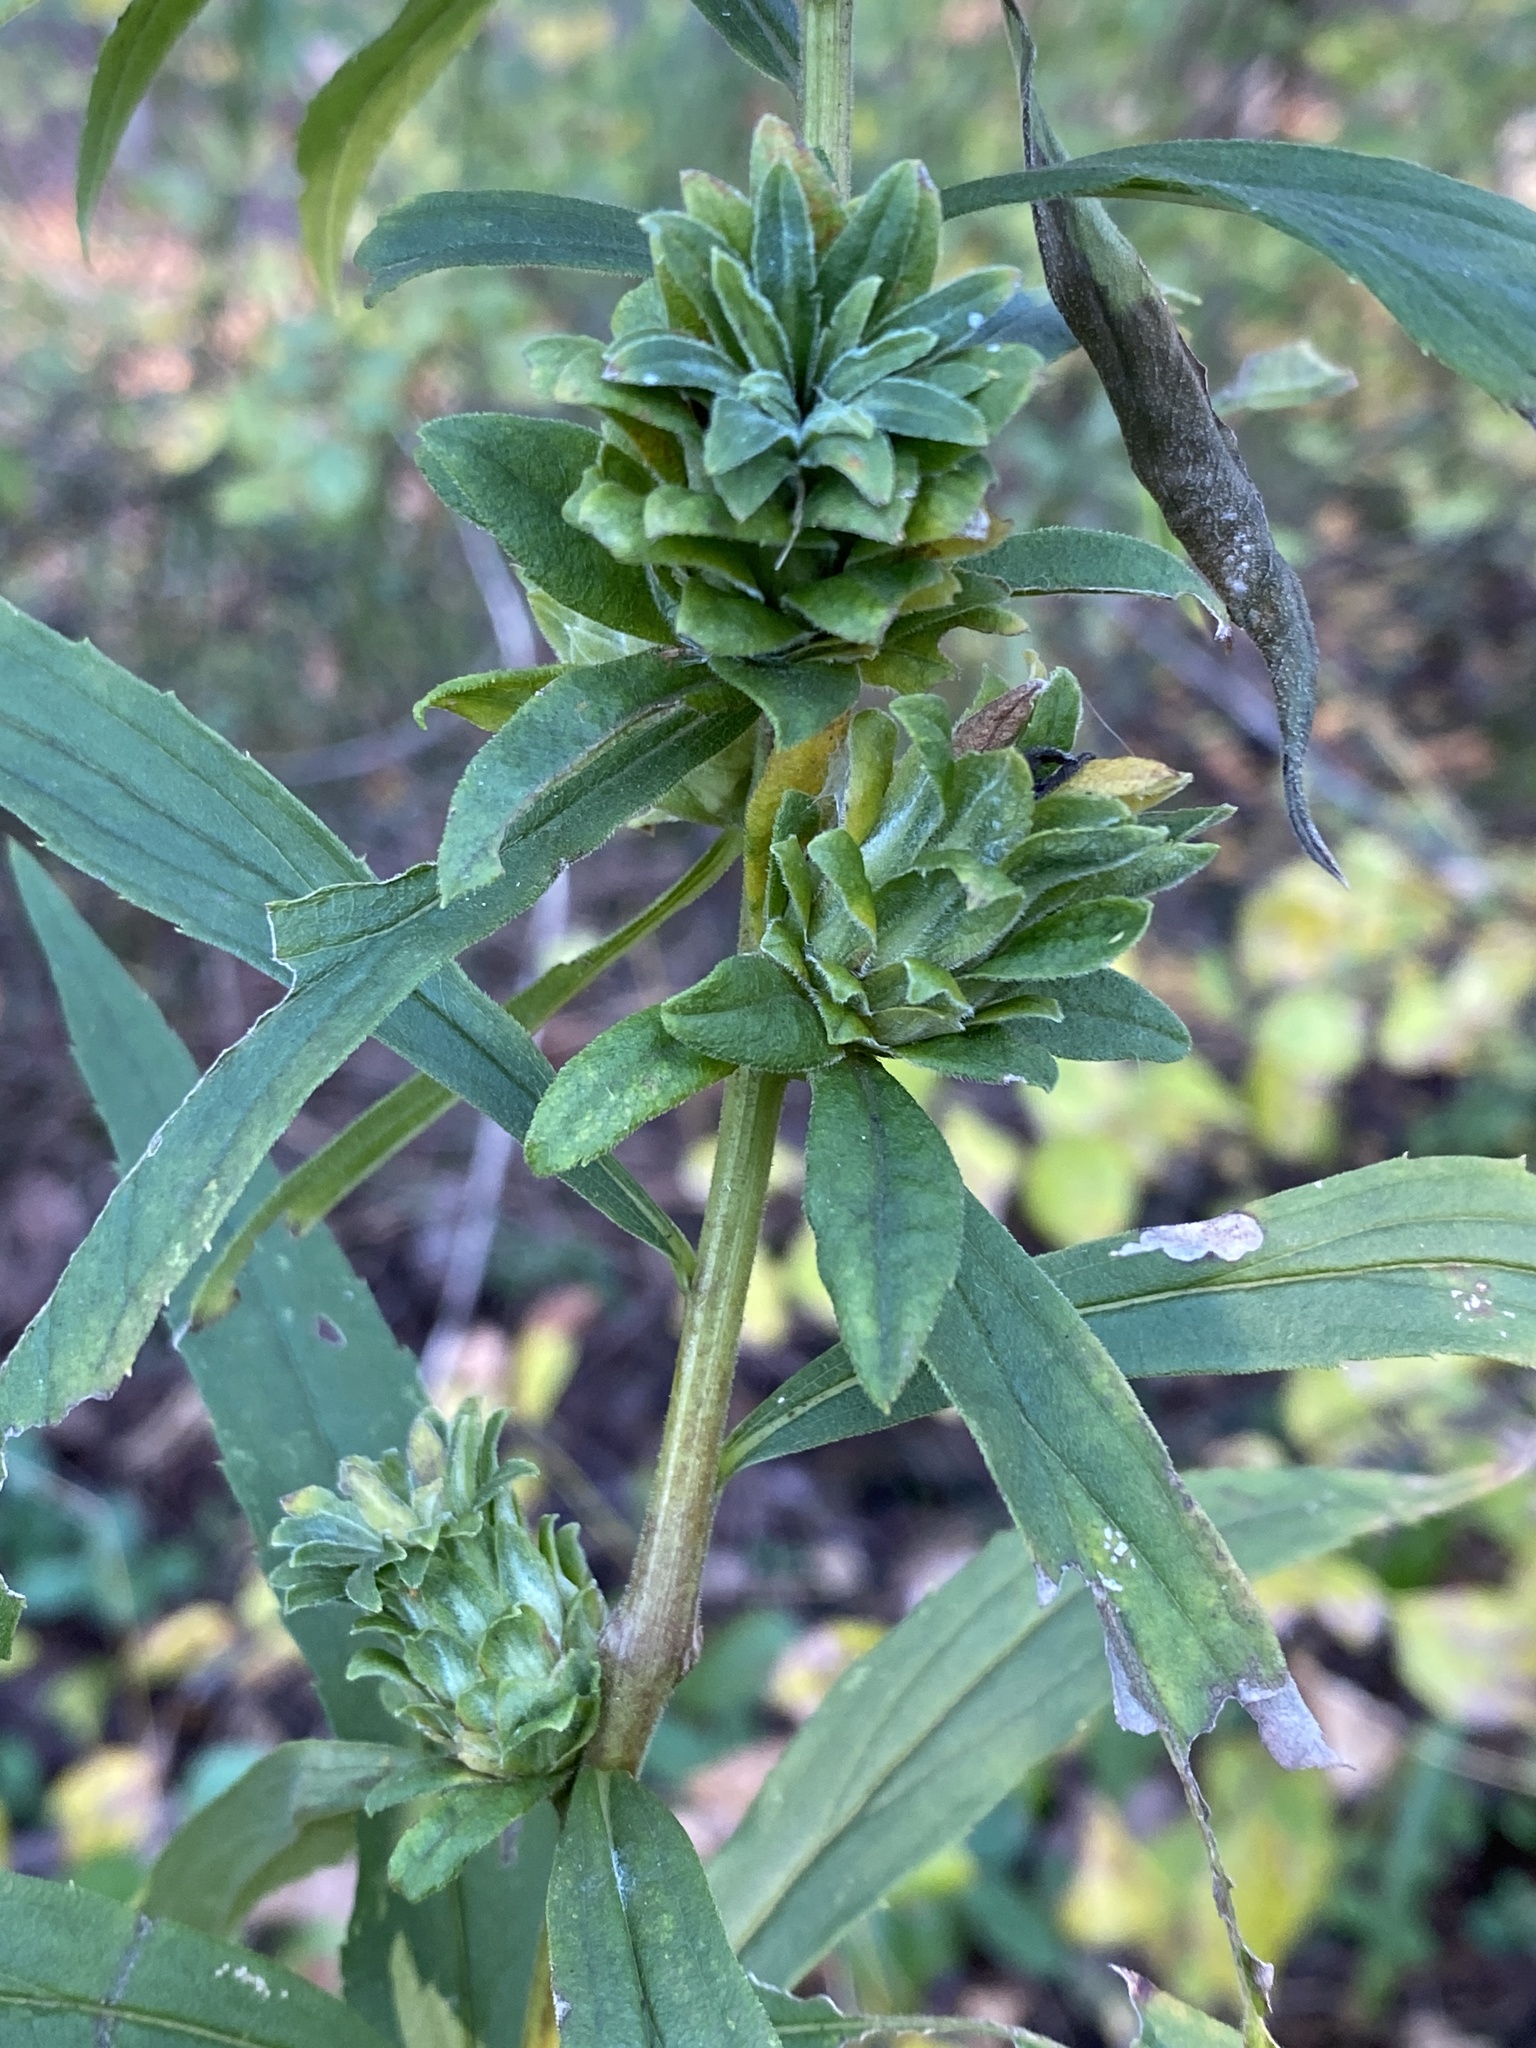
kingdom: Animalia
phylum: Arthropoda
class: Insecta
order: Diptera
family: Tephritidae
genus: Procecidochares
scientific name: Procecidochares atra
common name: Goldenrod brussels sprout gall fly
